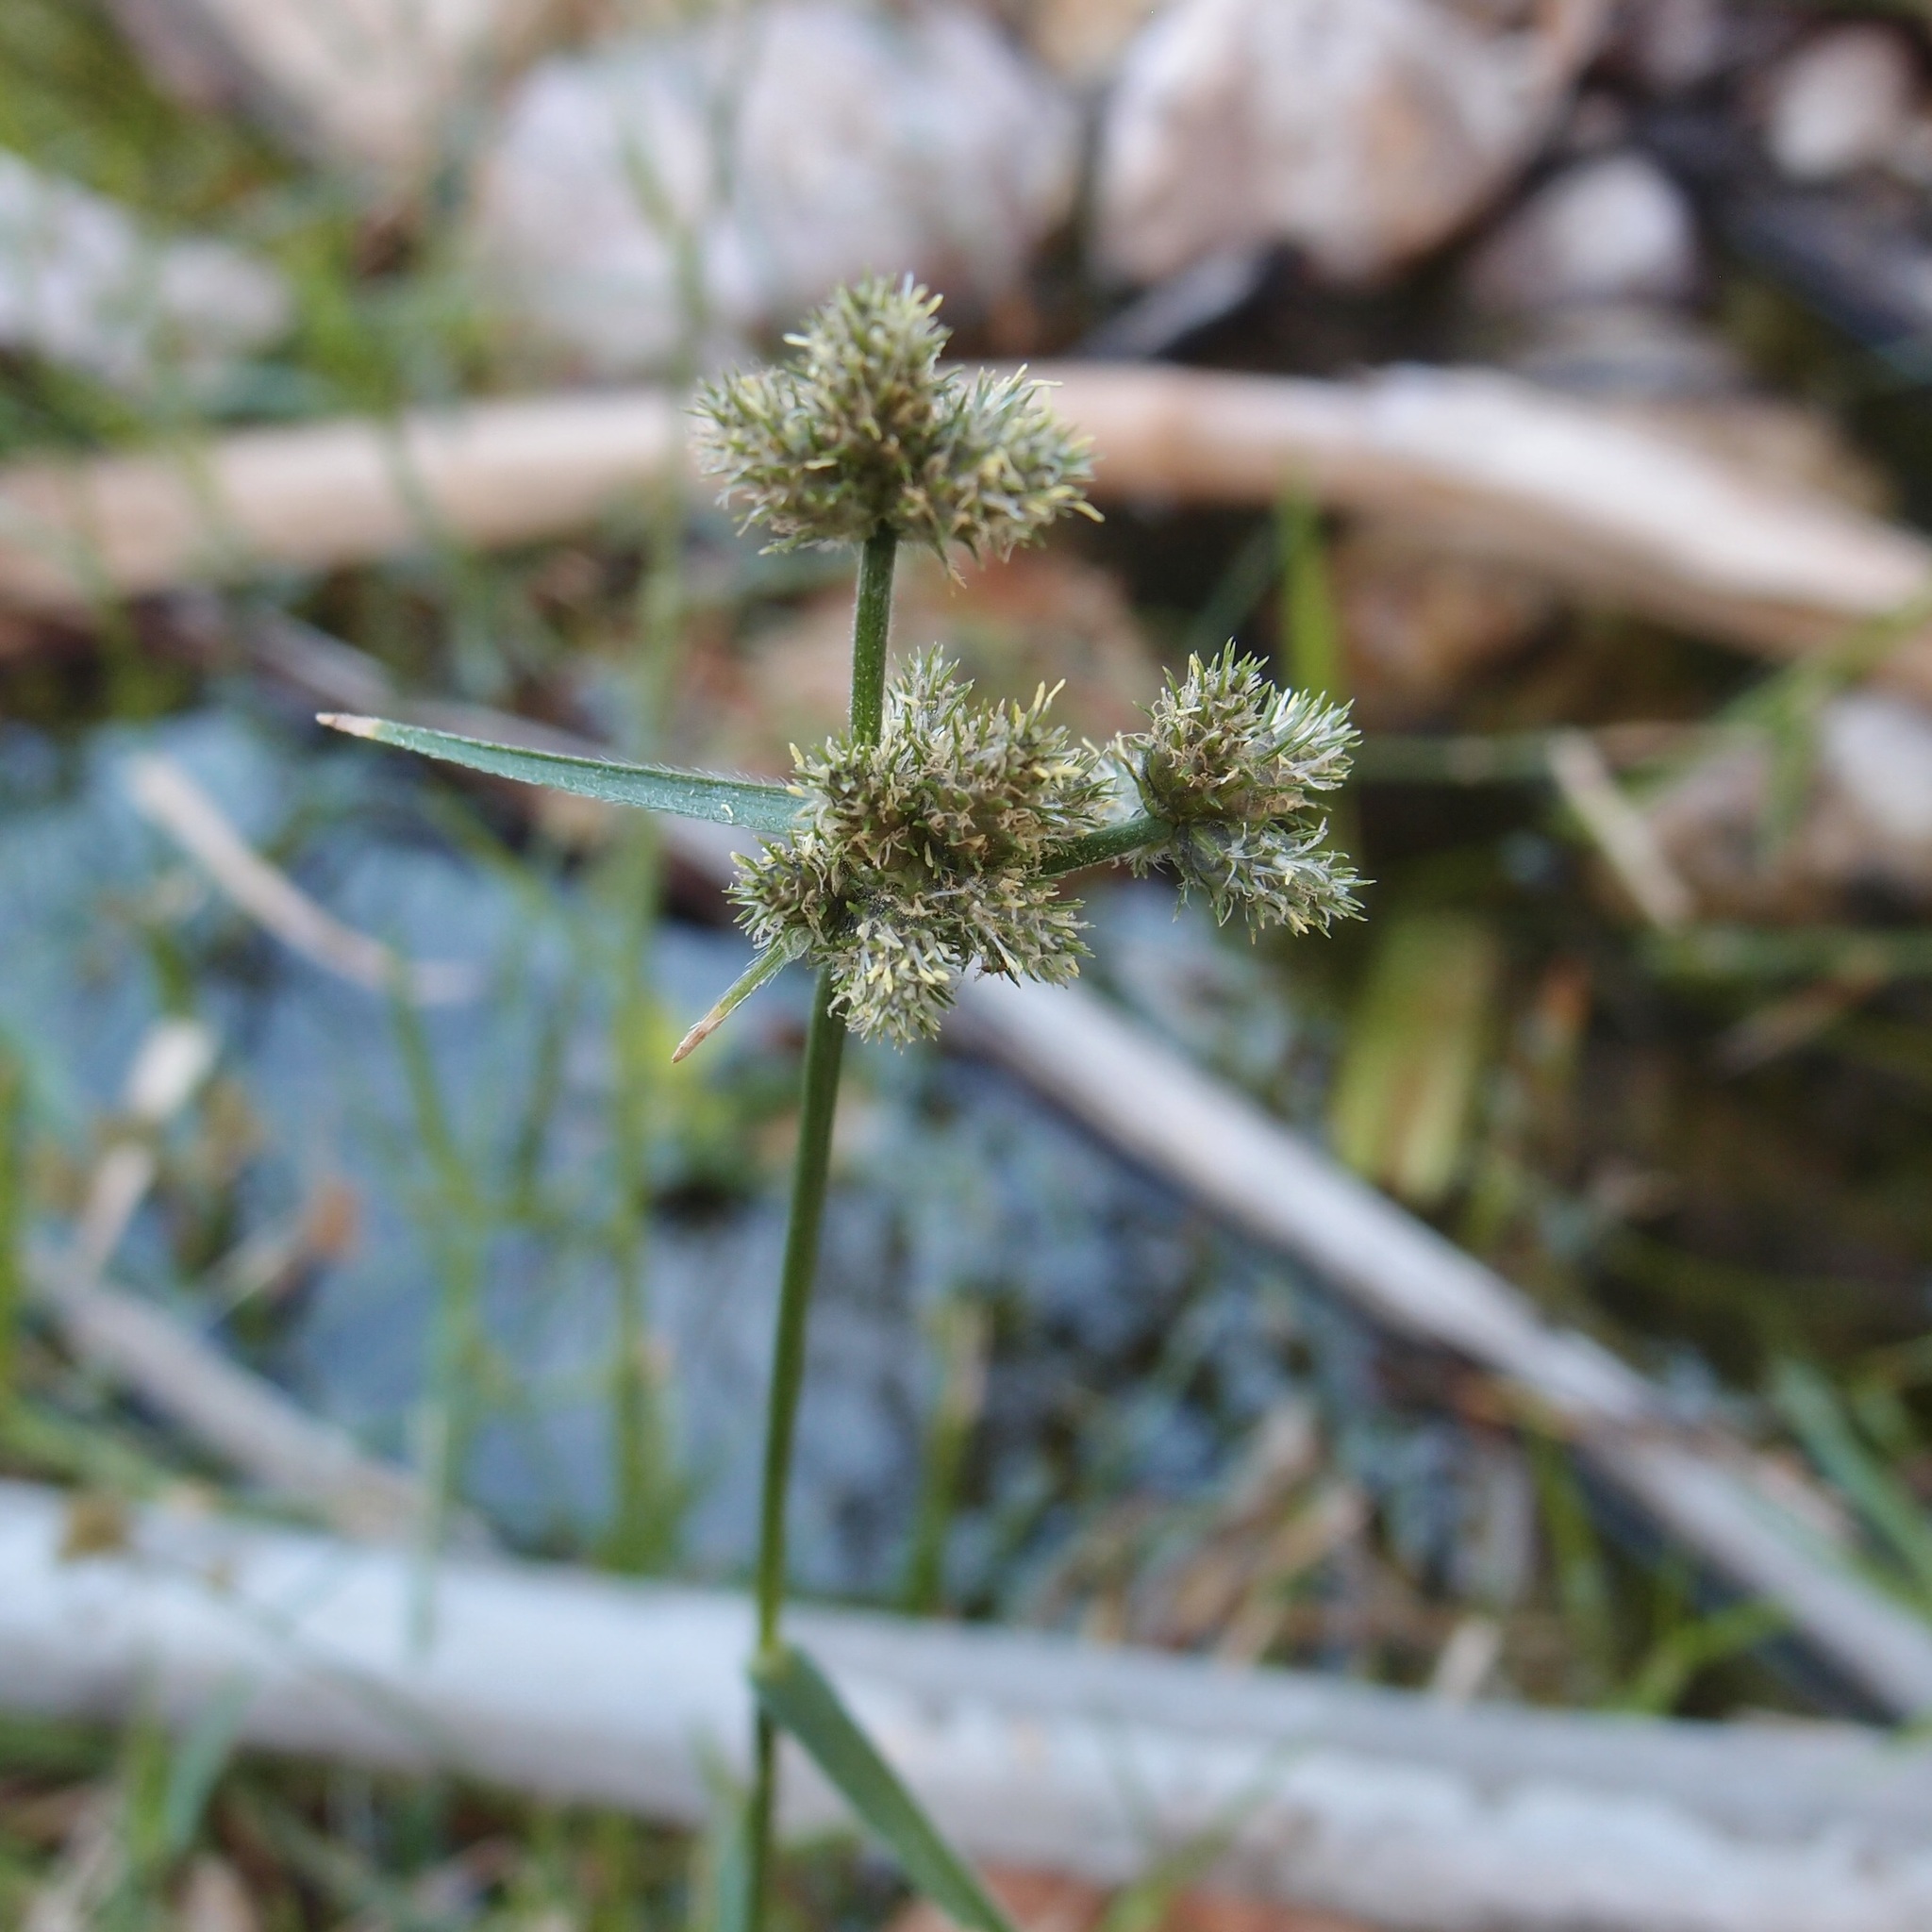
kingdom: Plantae
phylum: Tracheophyta
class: Liliopsida
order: Poales
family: Cyperaceae
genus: Fuirena
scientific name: Fuirena simplex
